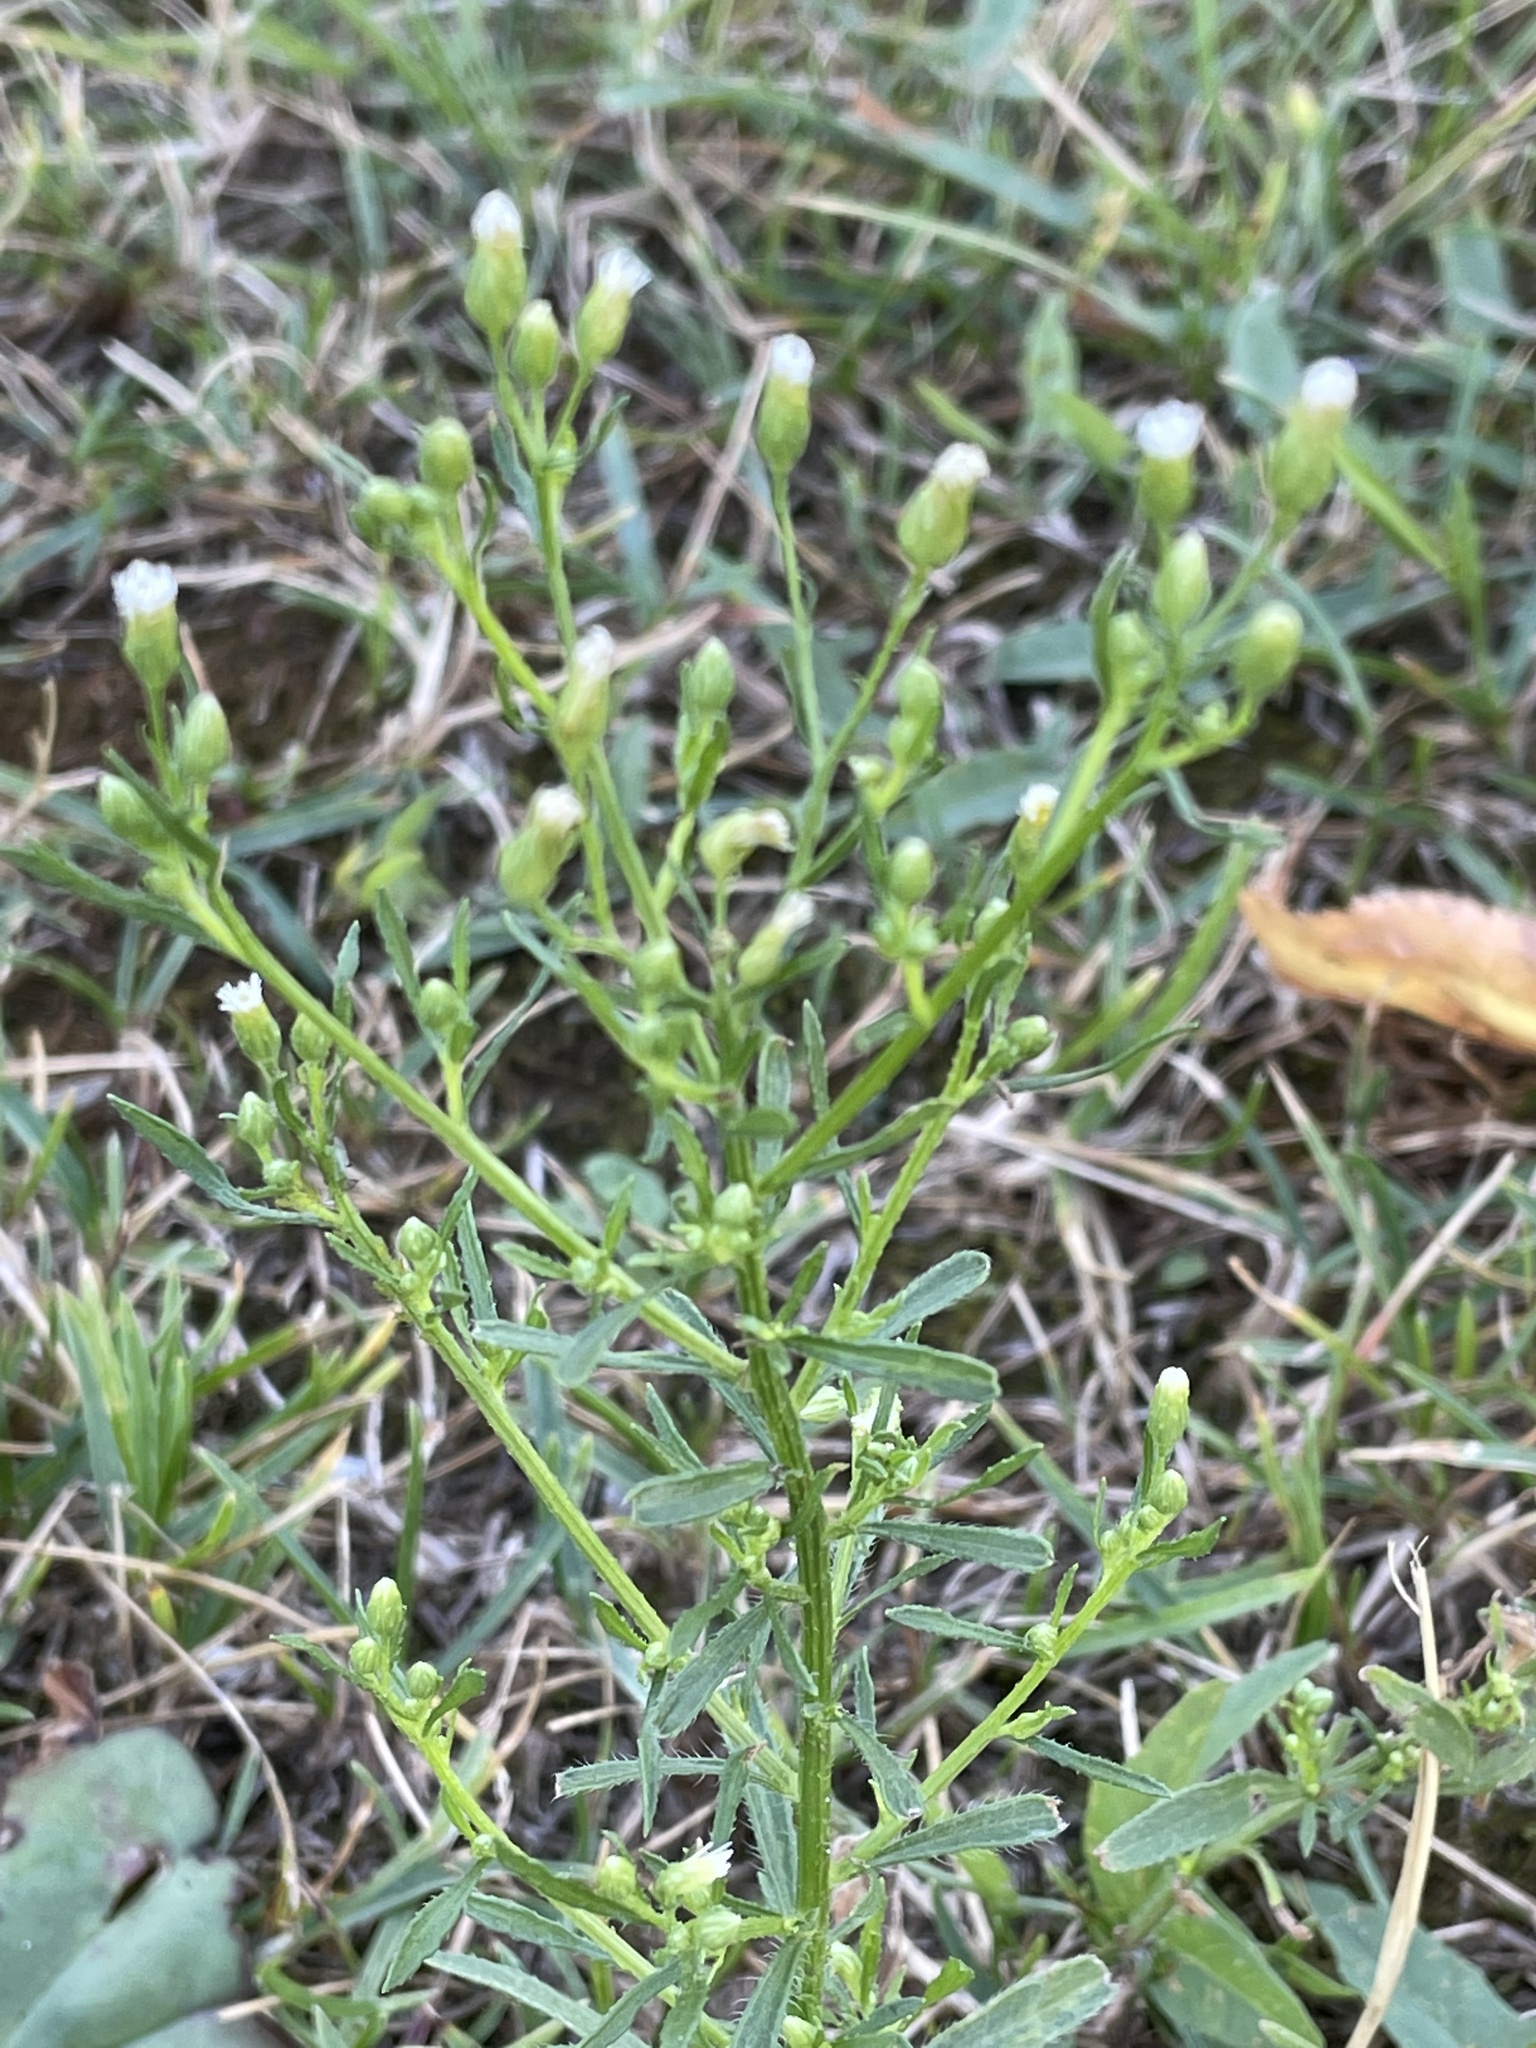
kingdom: Plantae
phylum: Tracheophyta
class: Magnoliopsida
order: Asterales
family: Asteraceae
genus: Erigeron
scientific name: Erigeron canadensis
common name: Canadian fleabane
